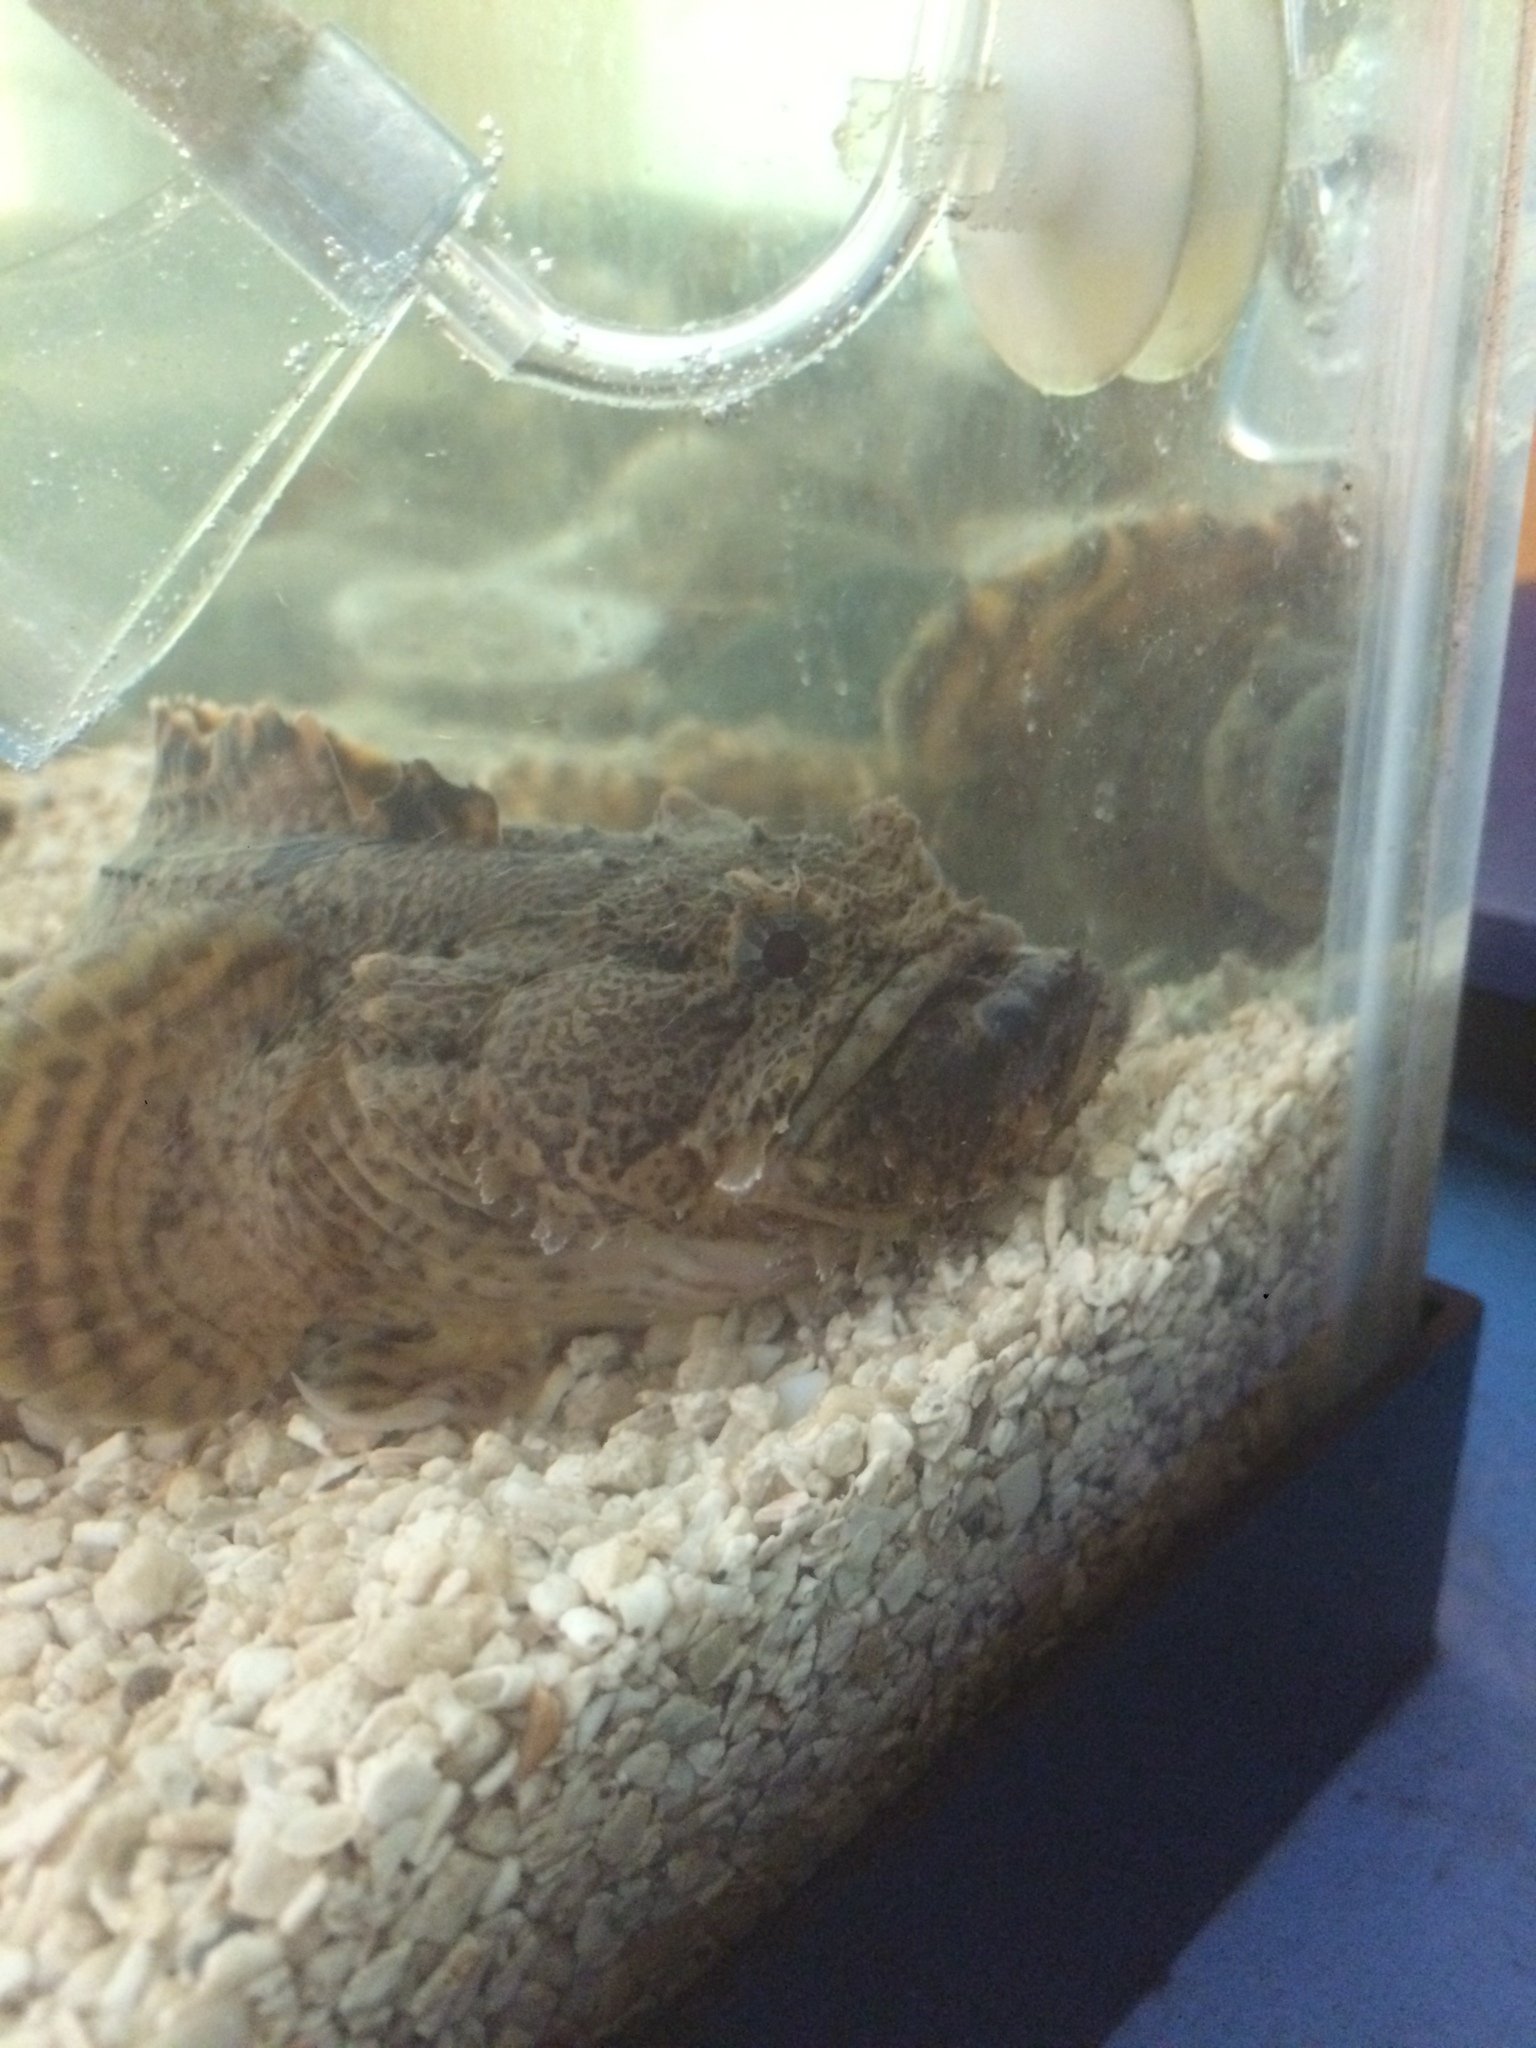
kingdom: Animalia
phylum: Chordata
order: Batrachoidiformes
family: Batrachoididae
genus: Opsanus
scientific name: Opsanus tau
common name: Oyster toadfish
